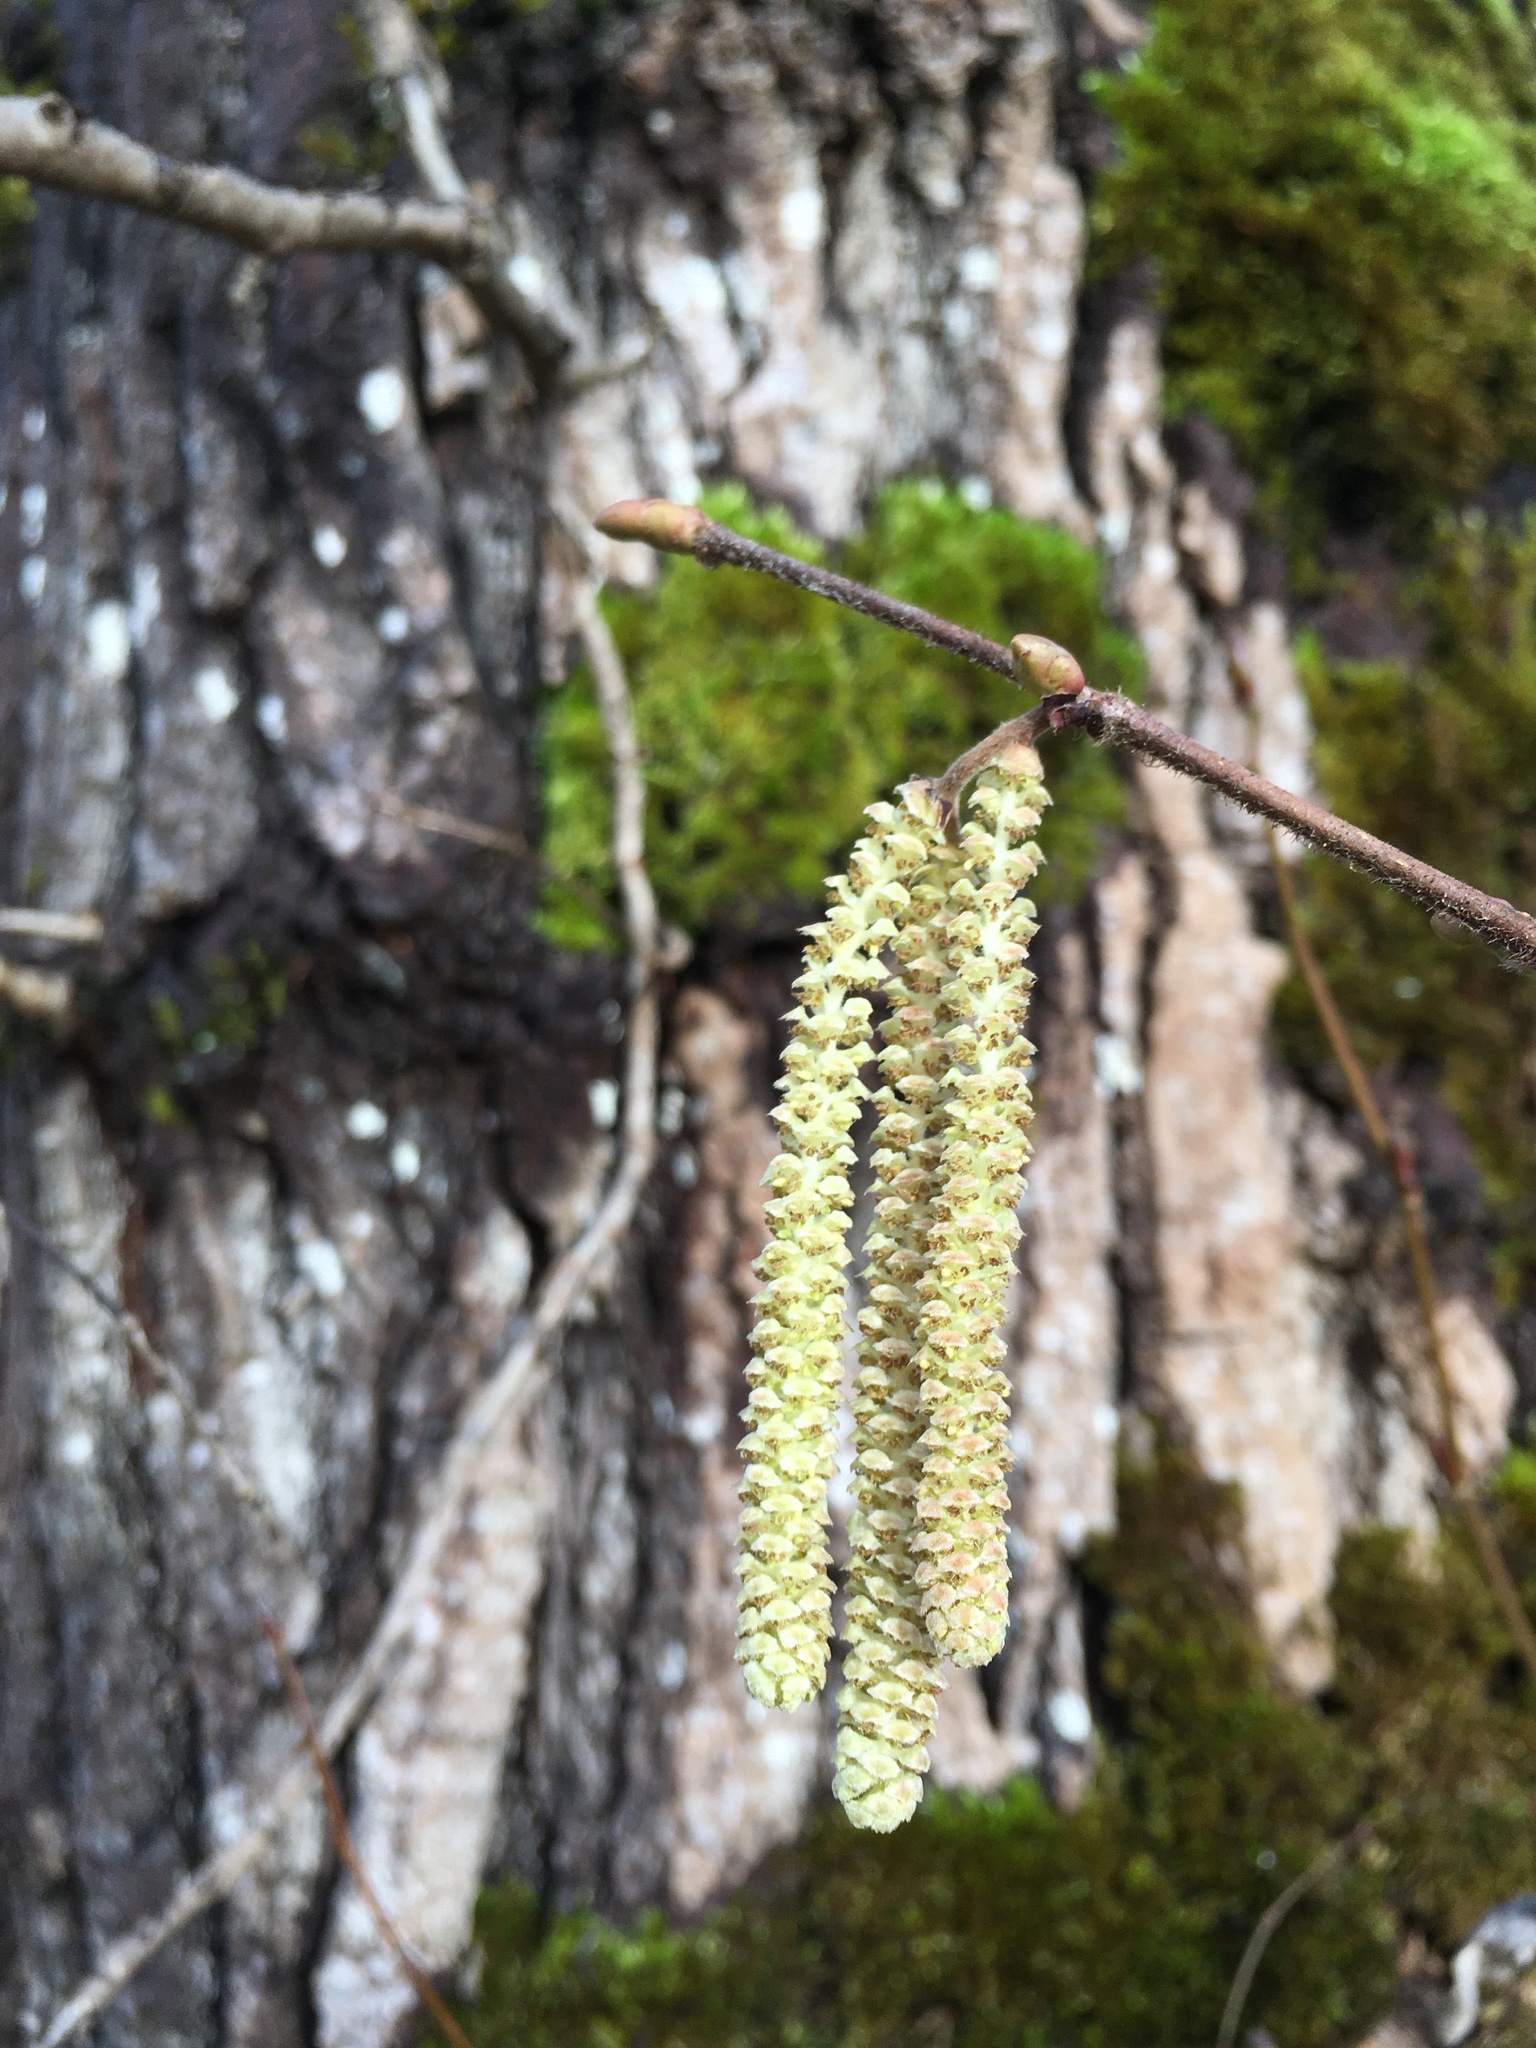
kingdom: Plantae
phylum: Tracheophyta
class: Magnoliopsida
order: Fagales
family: Betulaceae
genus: Corylus
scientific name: Corylus cornuta
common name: Beaked hazel
